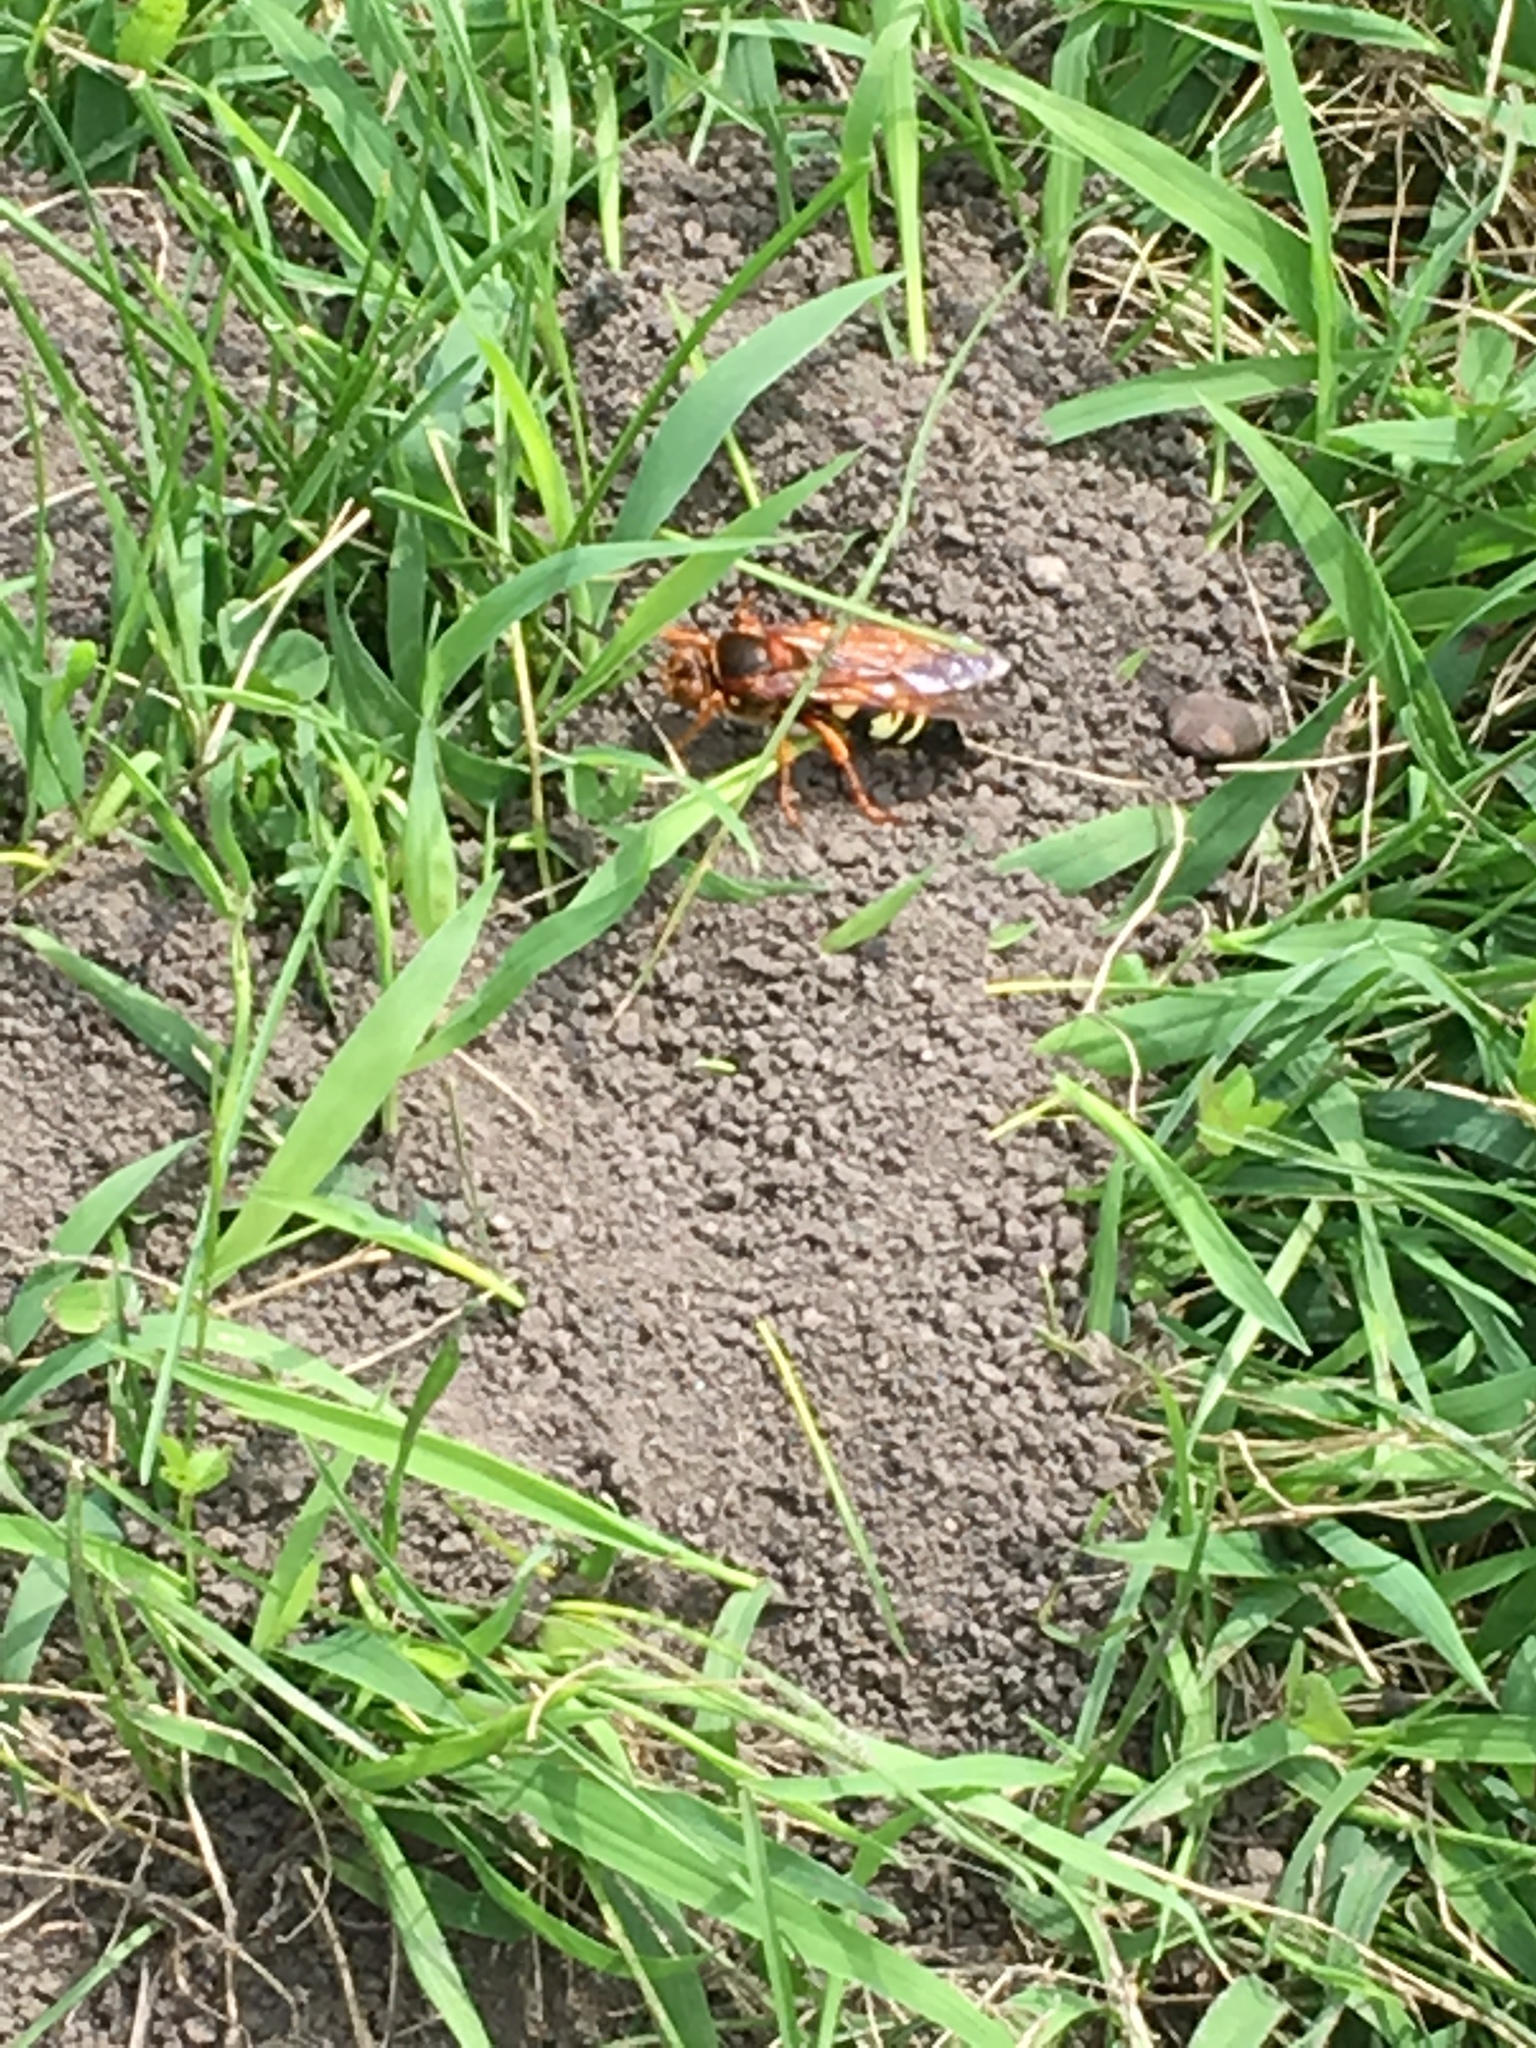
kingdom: Animalia
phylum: Arthropoda
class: Insecta
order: Hymenoptera
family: Crabronidae
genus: Sphecius
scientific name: Sphecius speciosus
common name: Cicada killer
